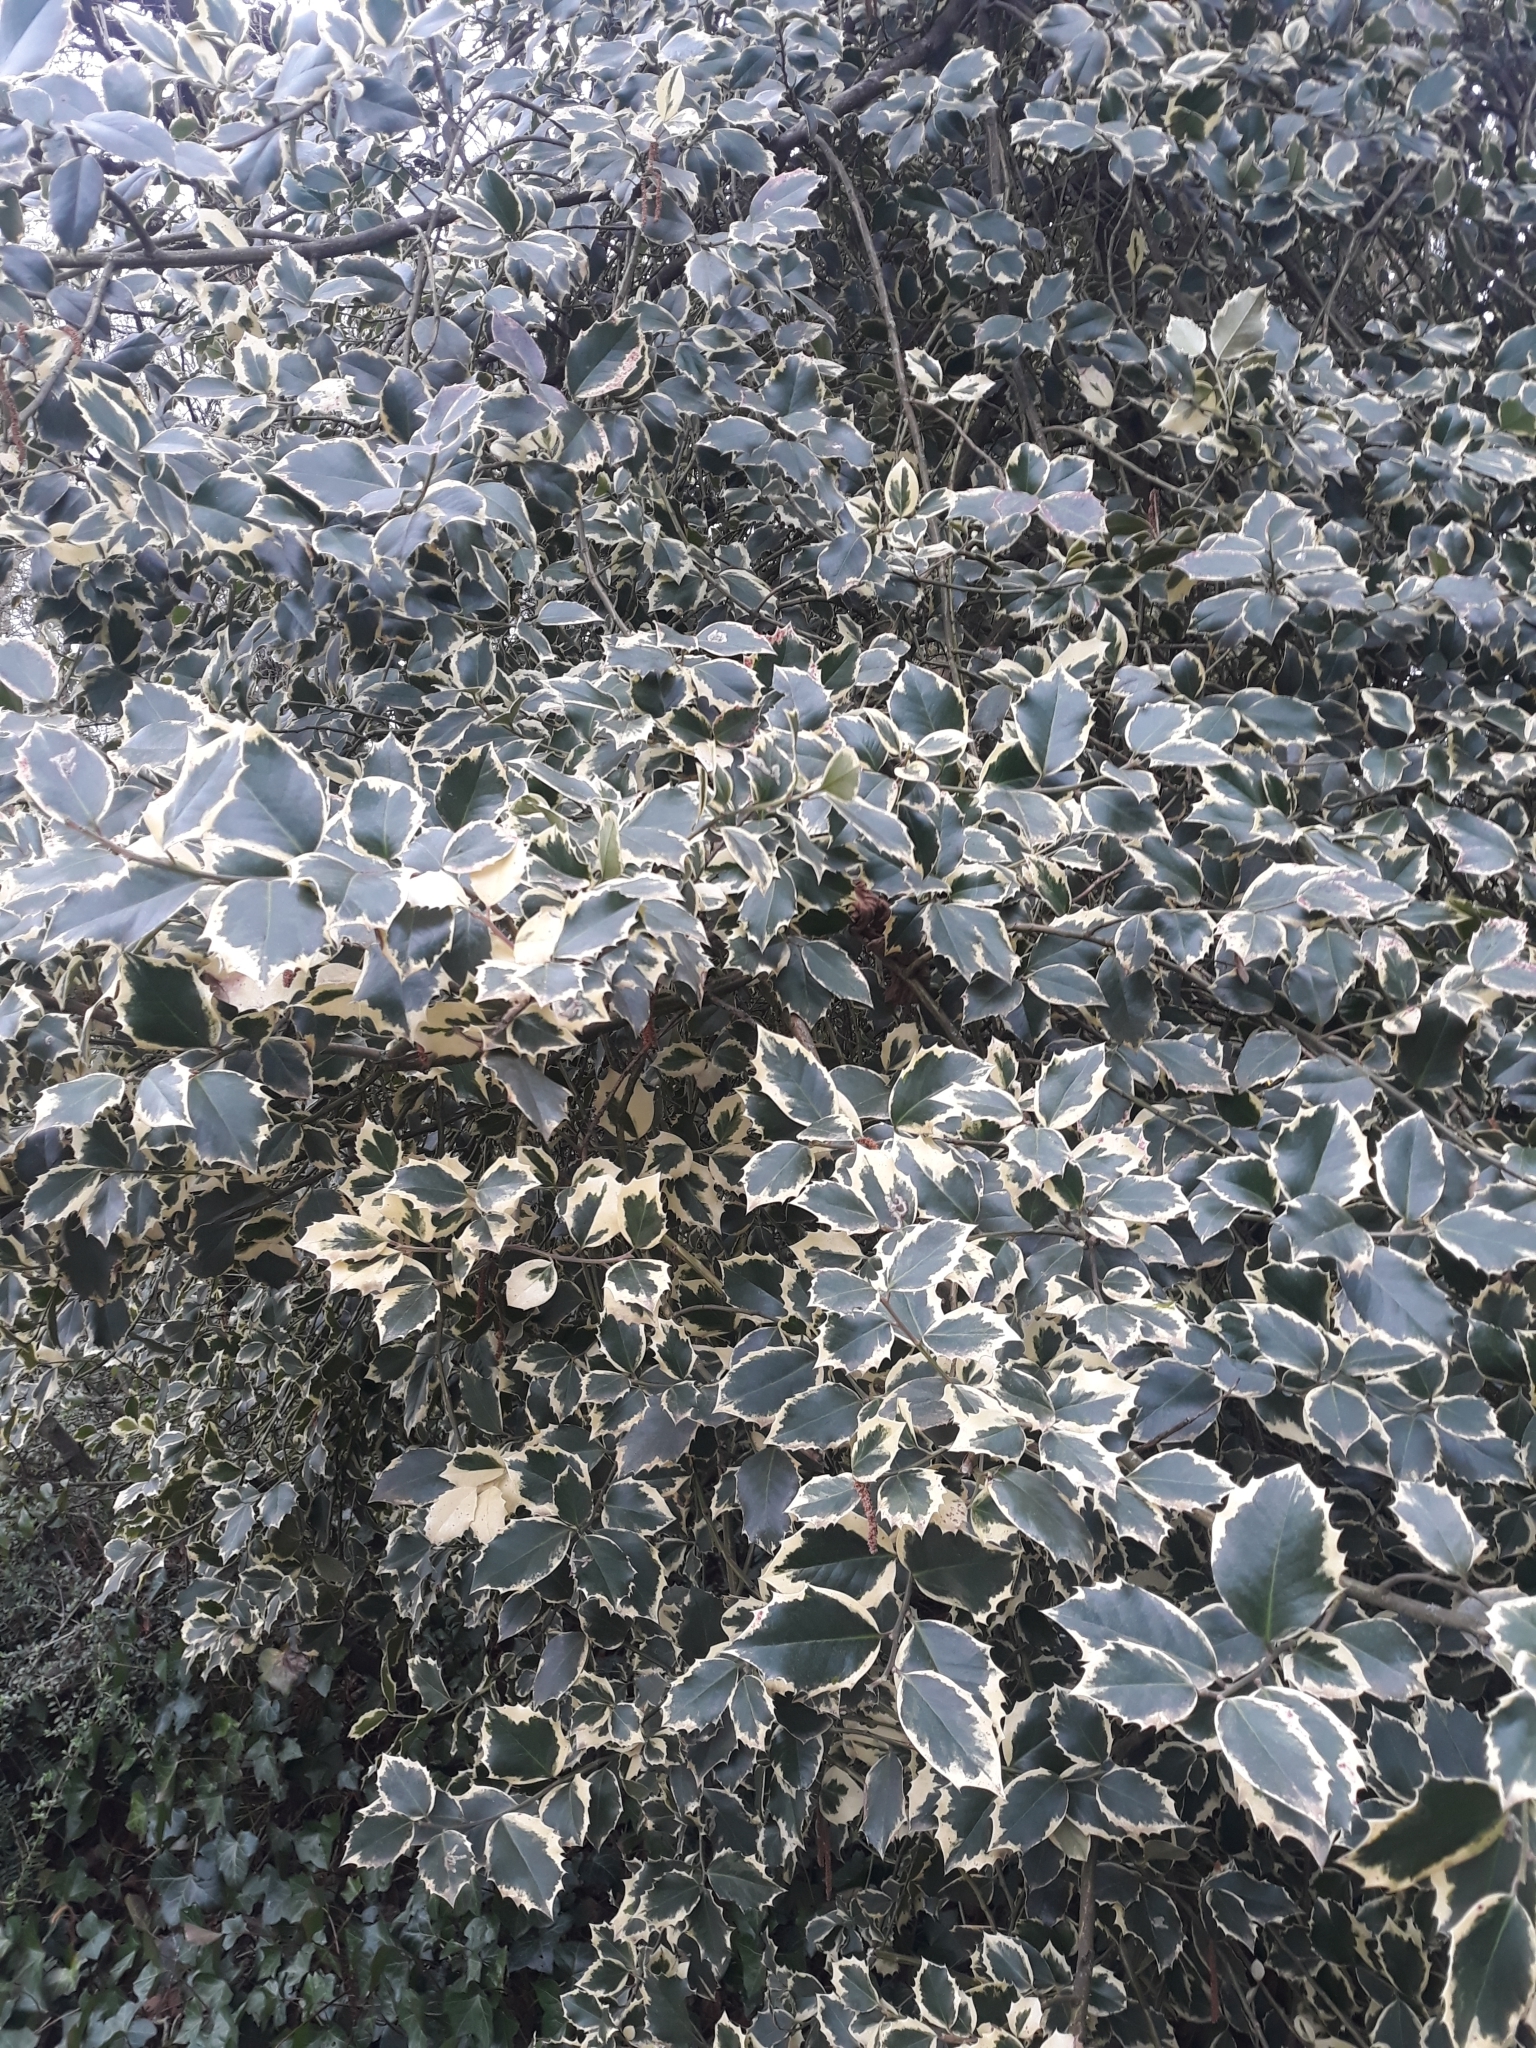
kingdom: Plantae
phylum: Tracheophyta
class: Magnoliopsida
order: Aquifoliales
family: Aquifoliaceae
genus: Ilex
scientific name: Ilex aquifolium
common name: English holly
